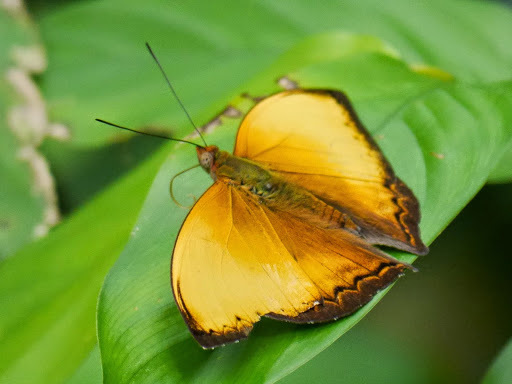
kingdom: Animalia
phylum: Arthropoda
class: Insecta
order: Lepidoptera
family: Nymphalidae
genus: Cymothoe
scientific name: Cymothoe lurida
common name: Lurid glider
